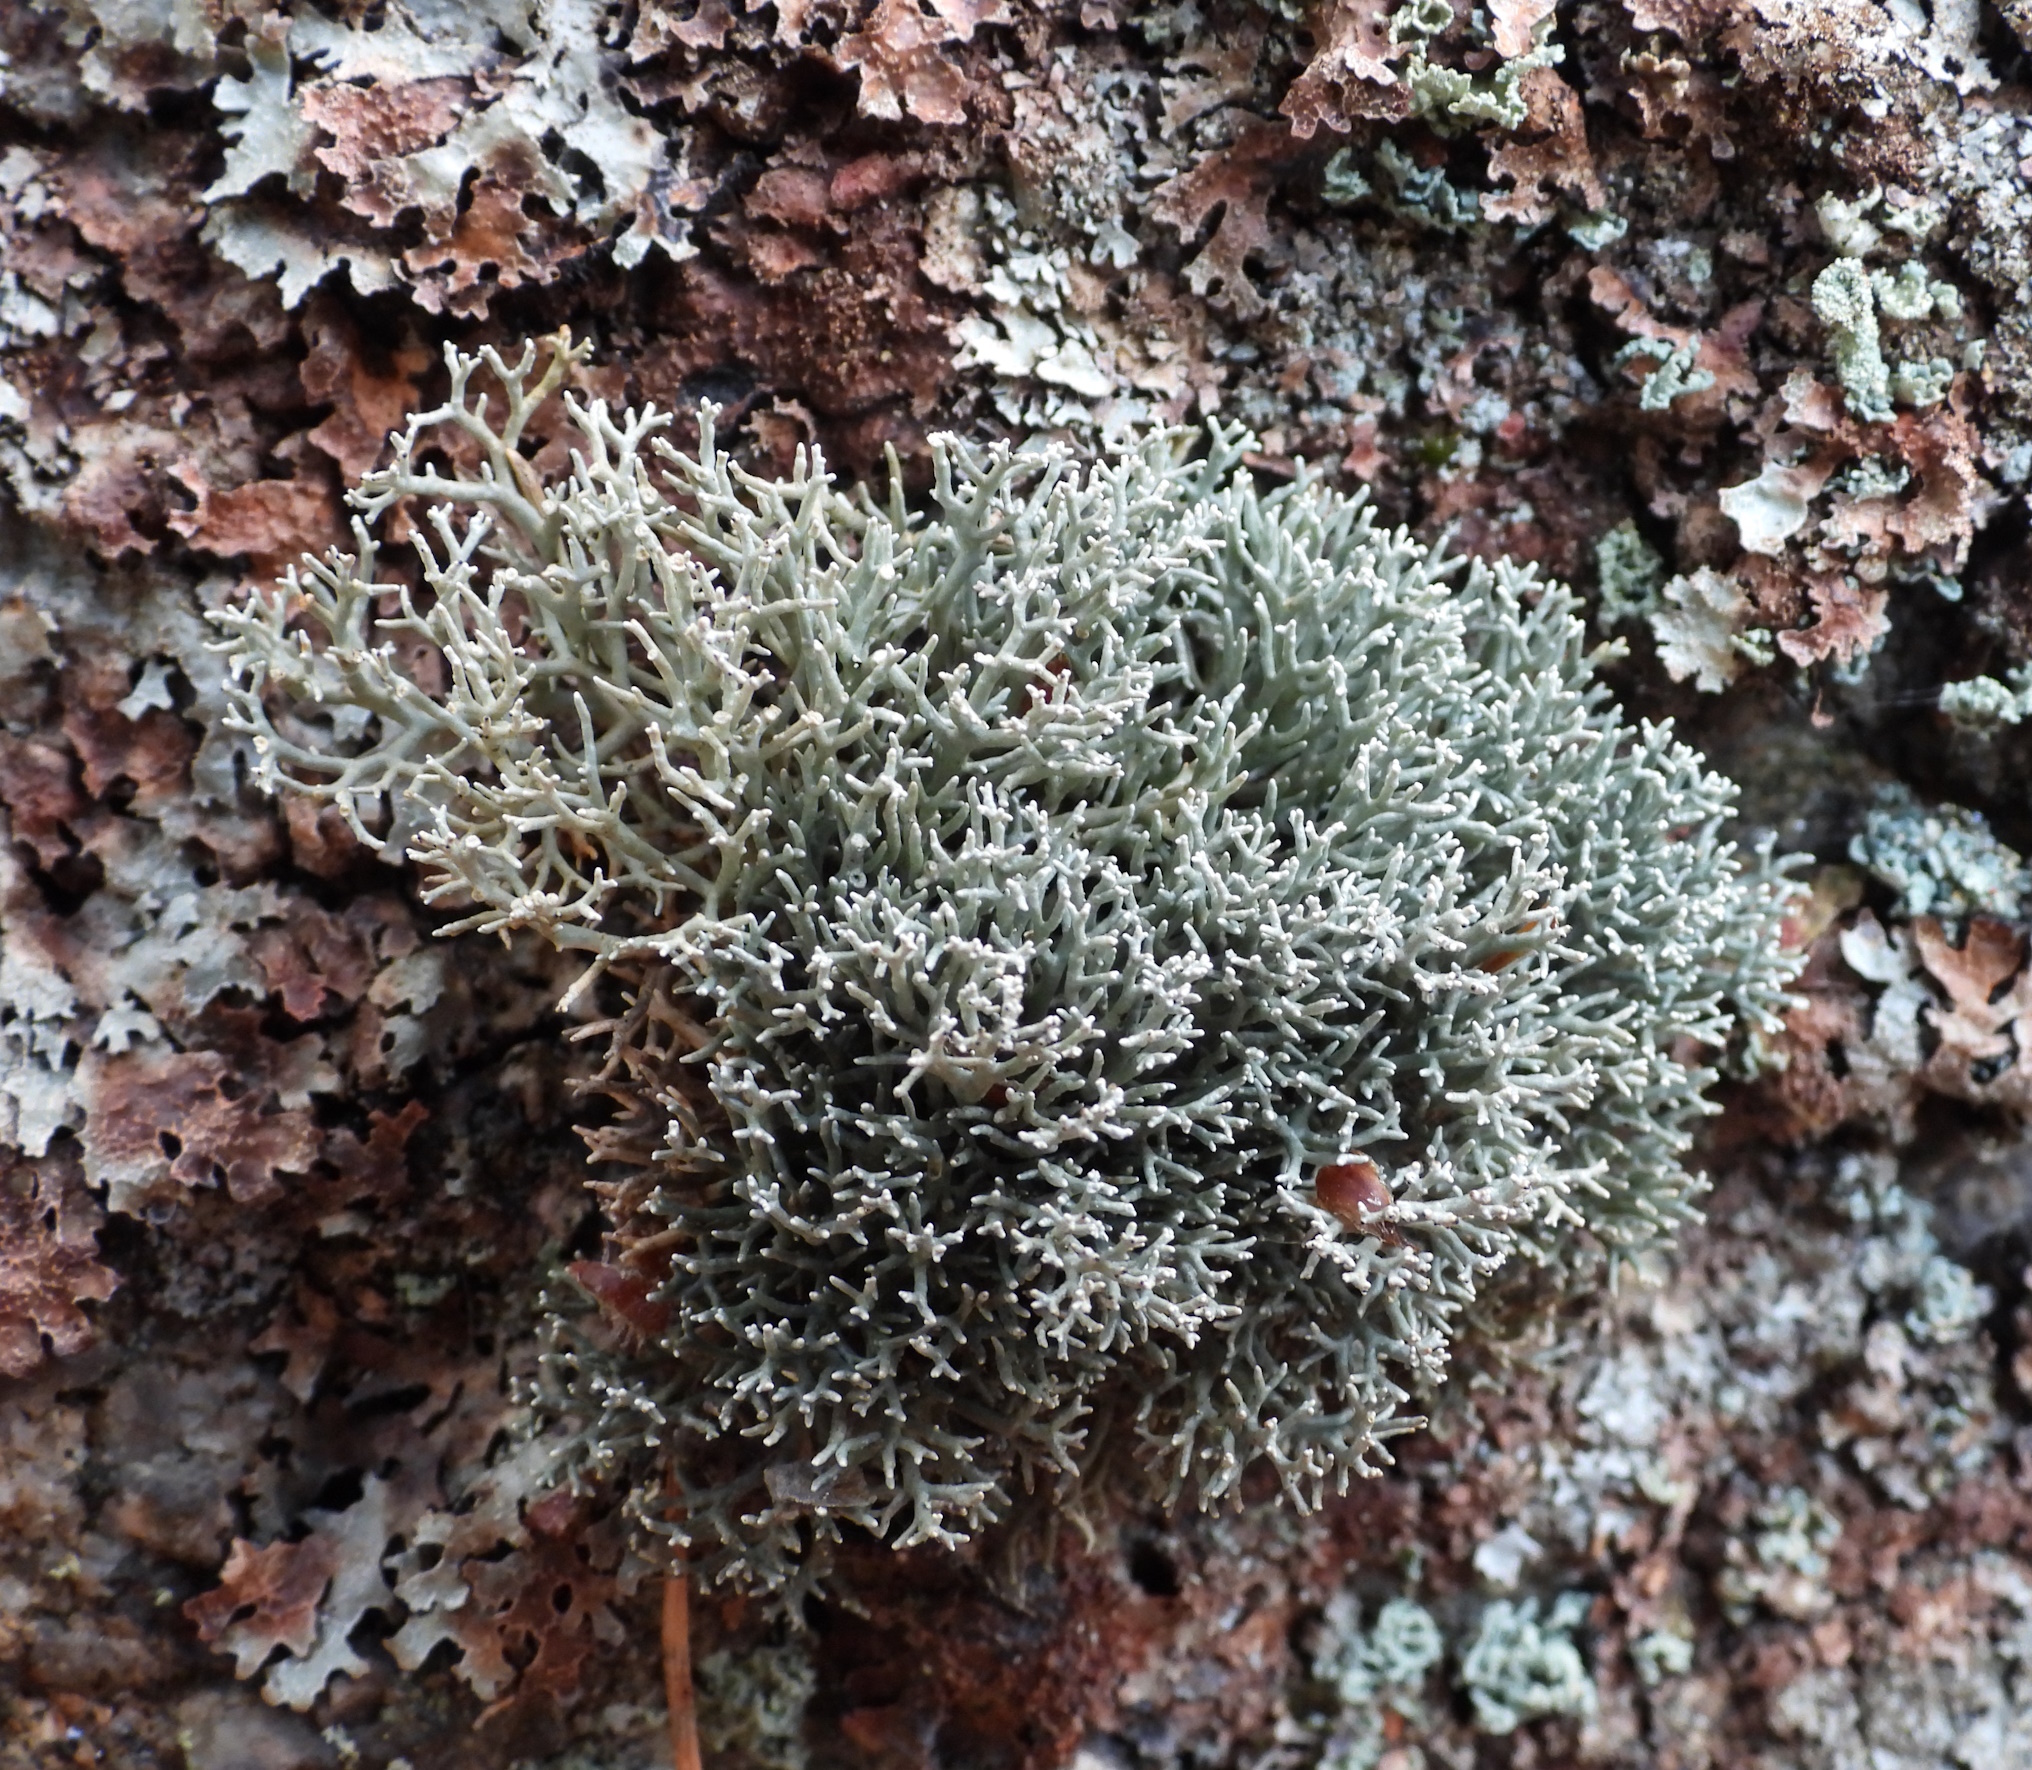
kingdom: Fungi
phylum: Ascomycota
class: Lecanoromycetes
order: Lecanorales
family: Sphaerophoraceae
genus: Sphaerophorus
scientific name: Sphaerophorus fragilis
